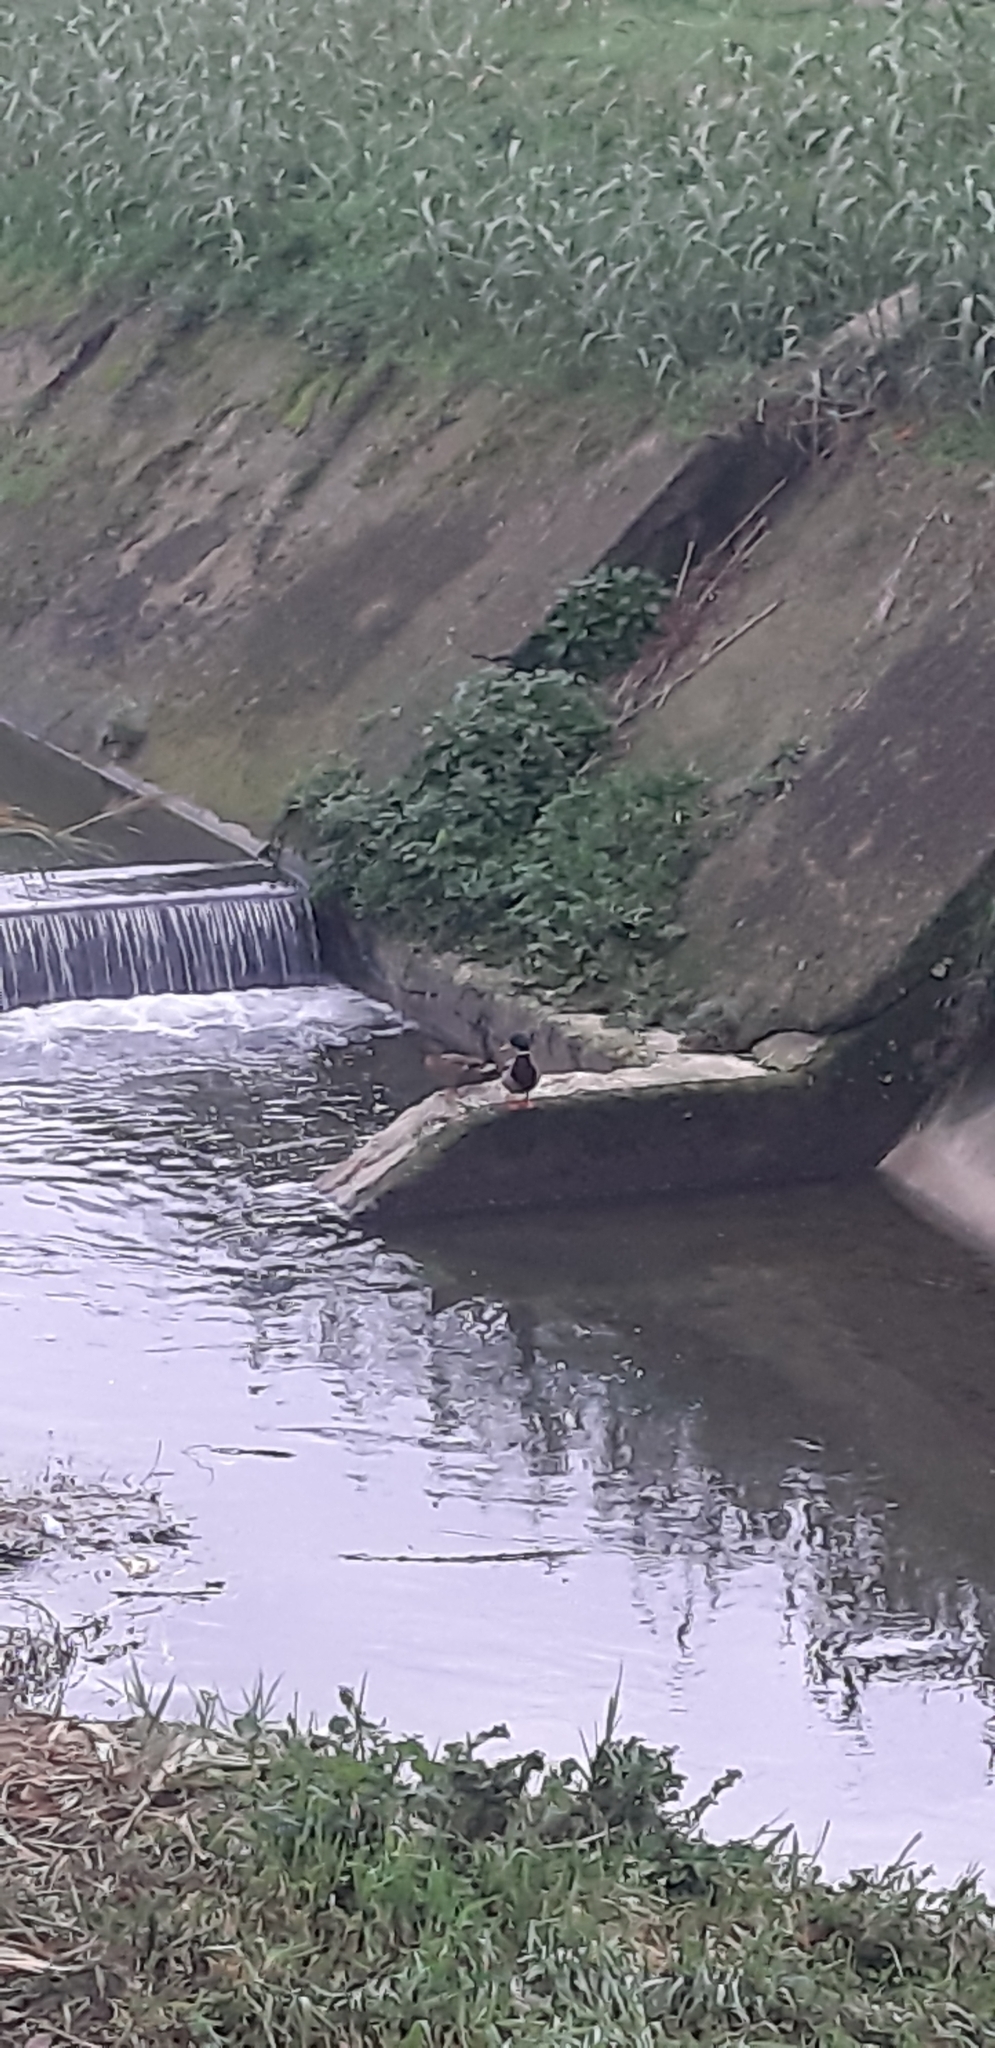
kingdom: Animalia
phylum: Chordata
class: Aves
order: Anseriformes
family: Anatidae
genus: Anas
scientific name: Anas platyrhynchos
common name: Mallard
